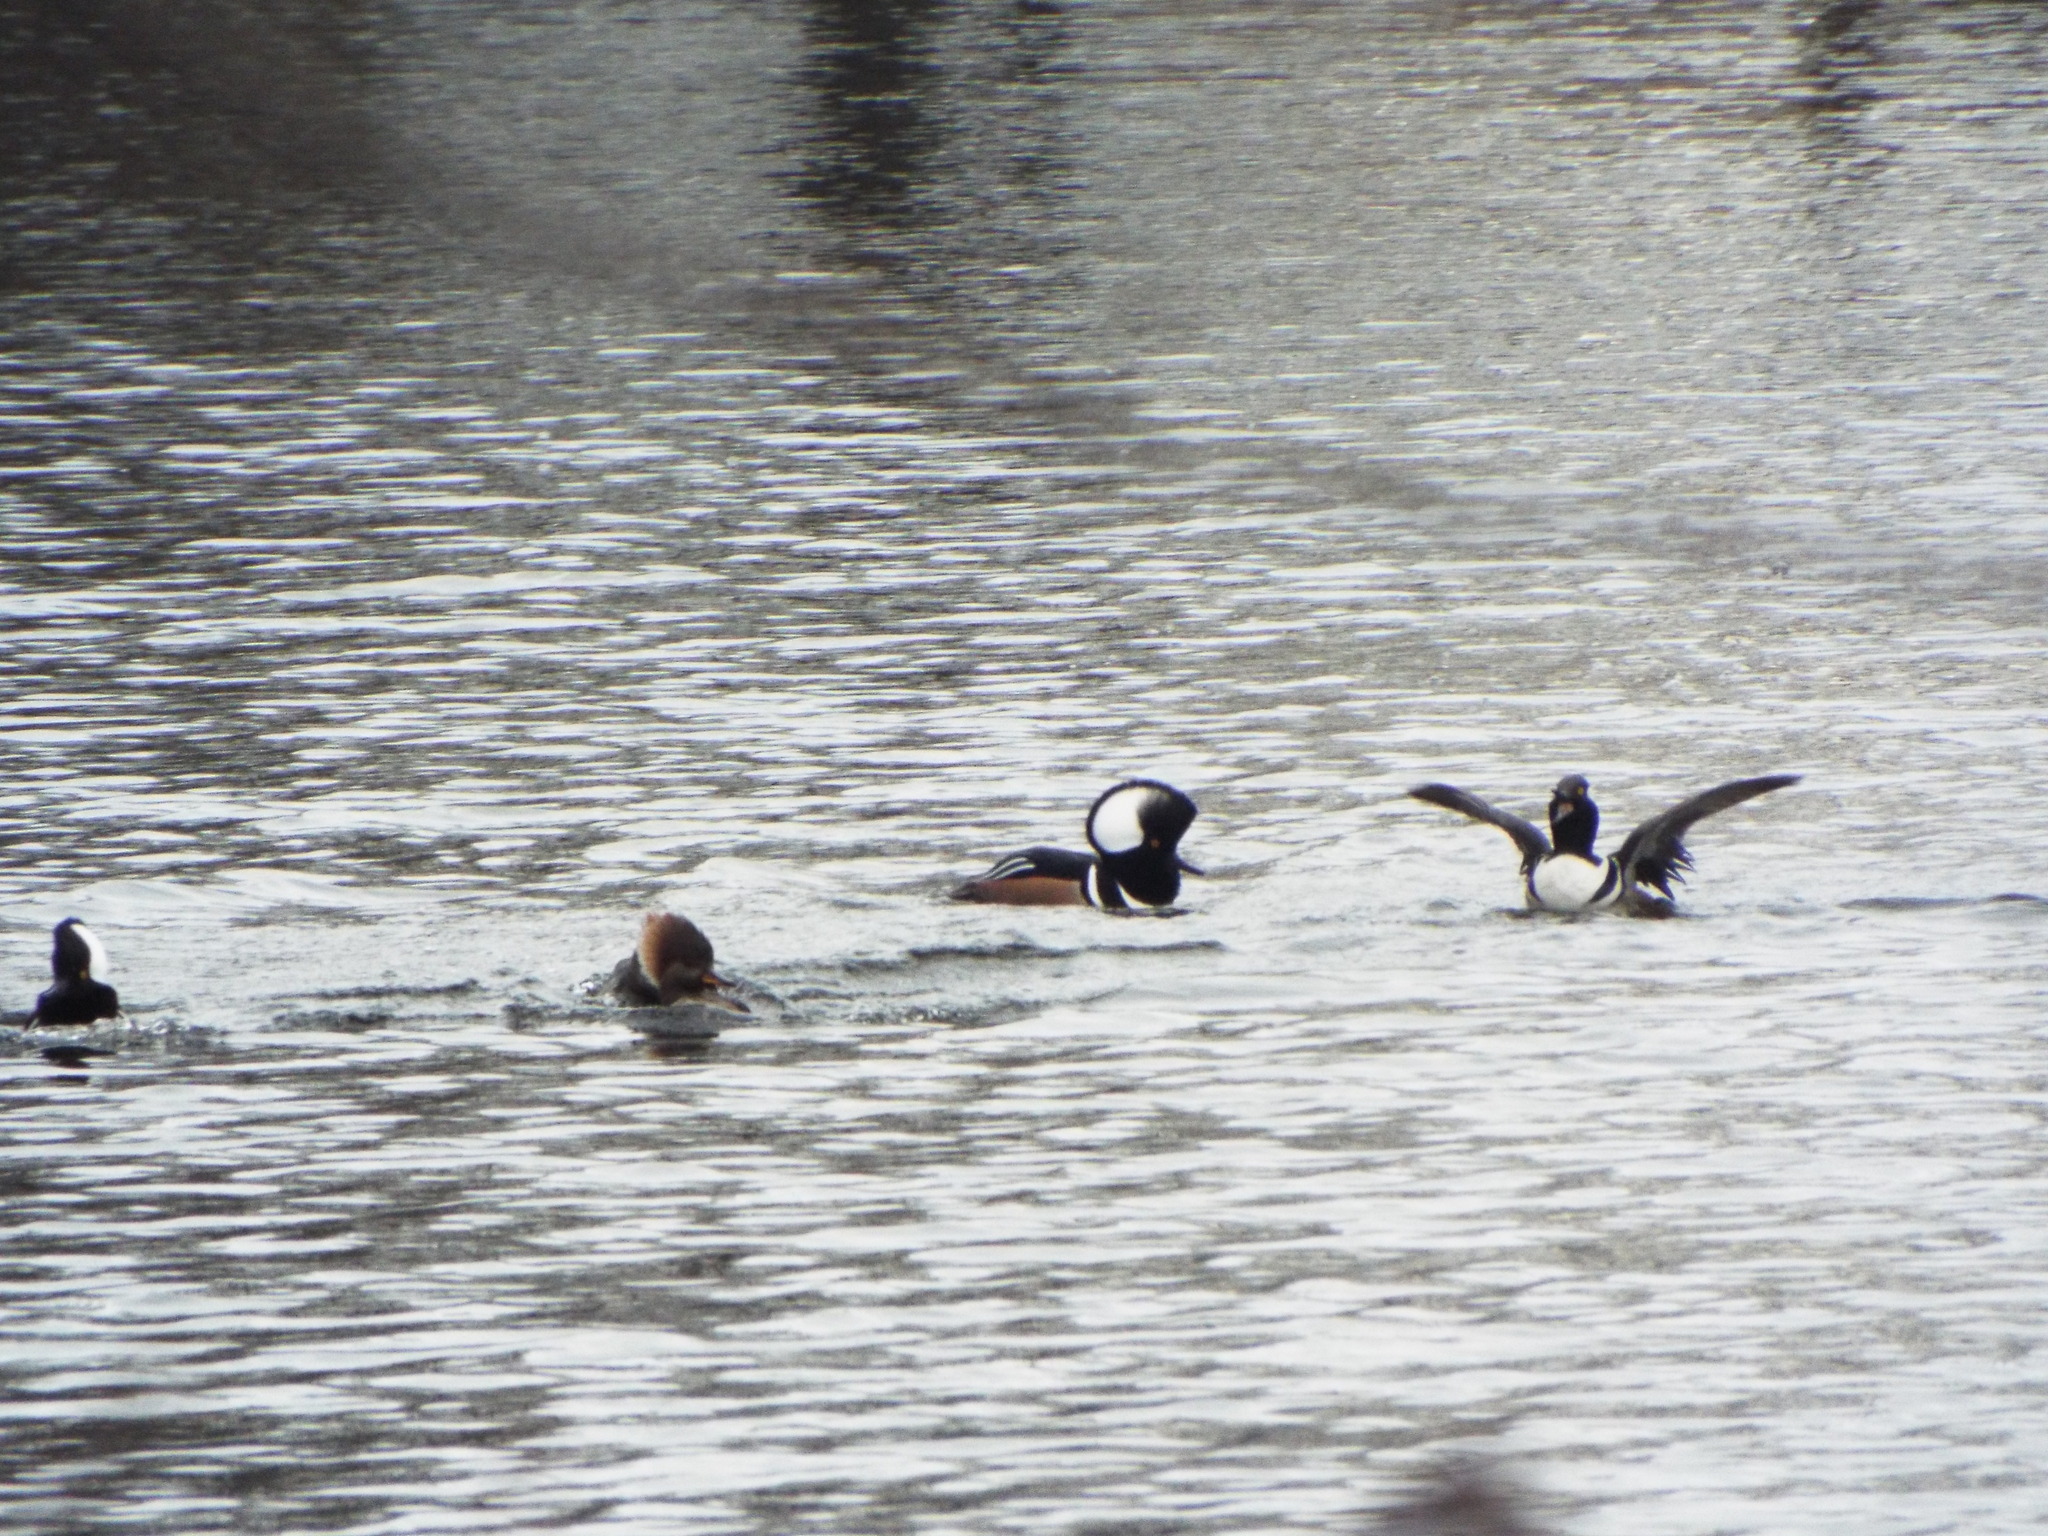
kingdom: Animalia
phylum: Chordata
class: Aves
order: Anseriformes
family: Anatidae
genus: Lophodytes
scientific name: Lophodytes cucullatus
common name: Hooded merganser
